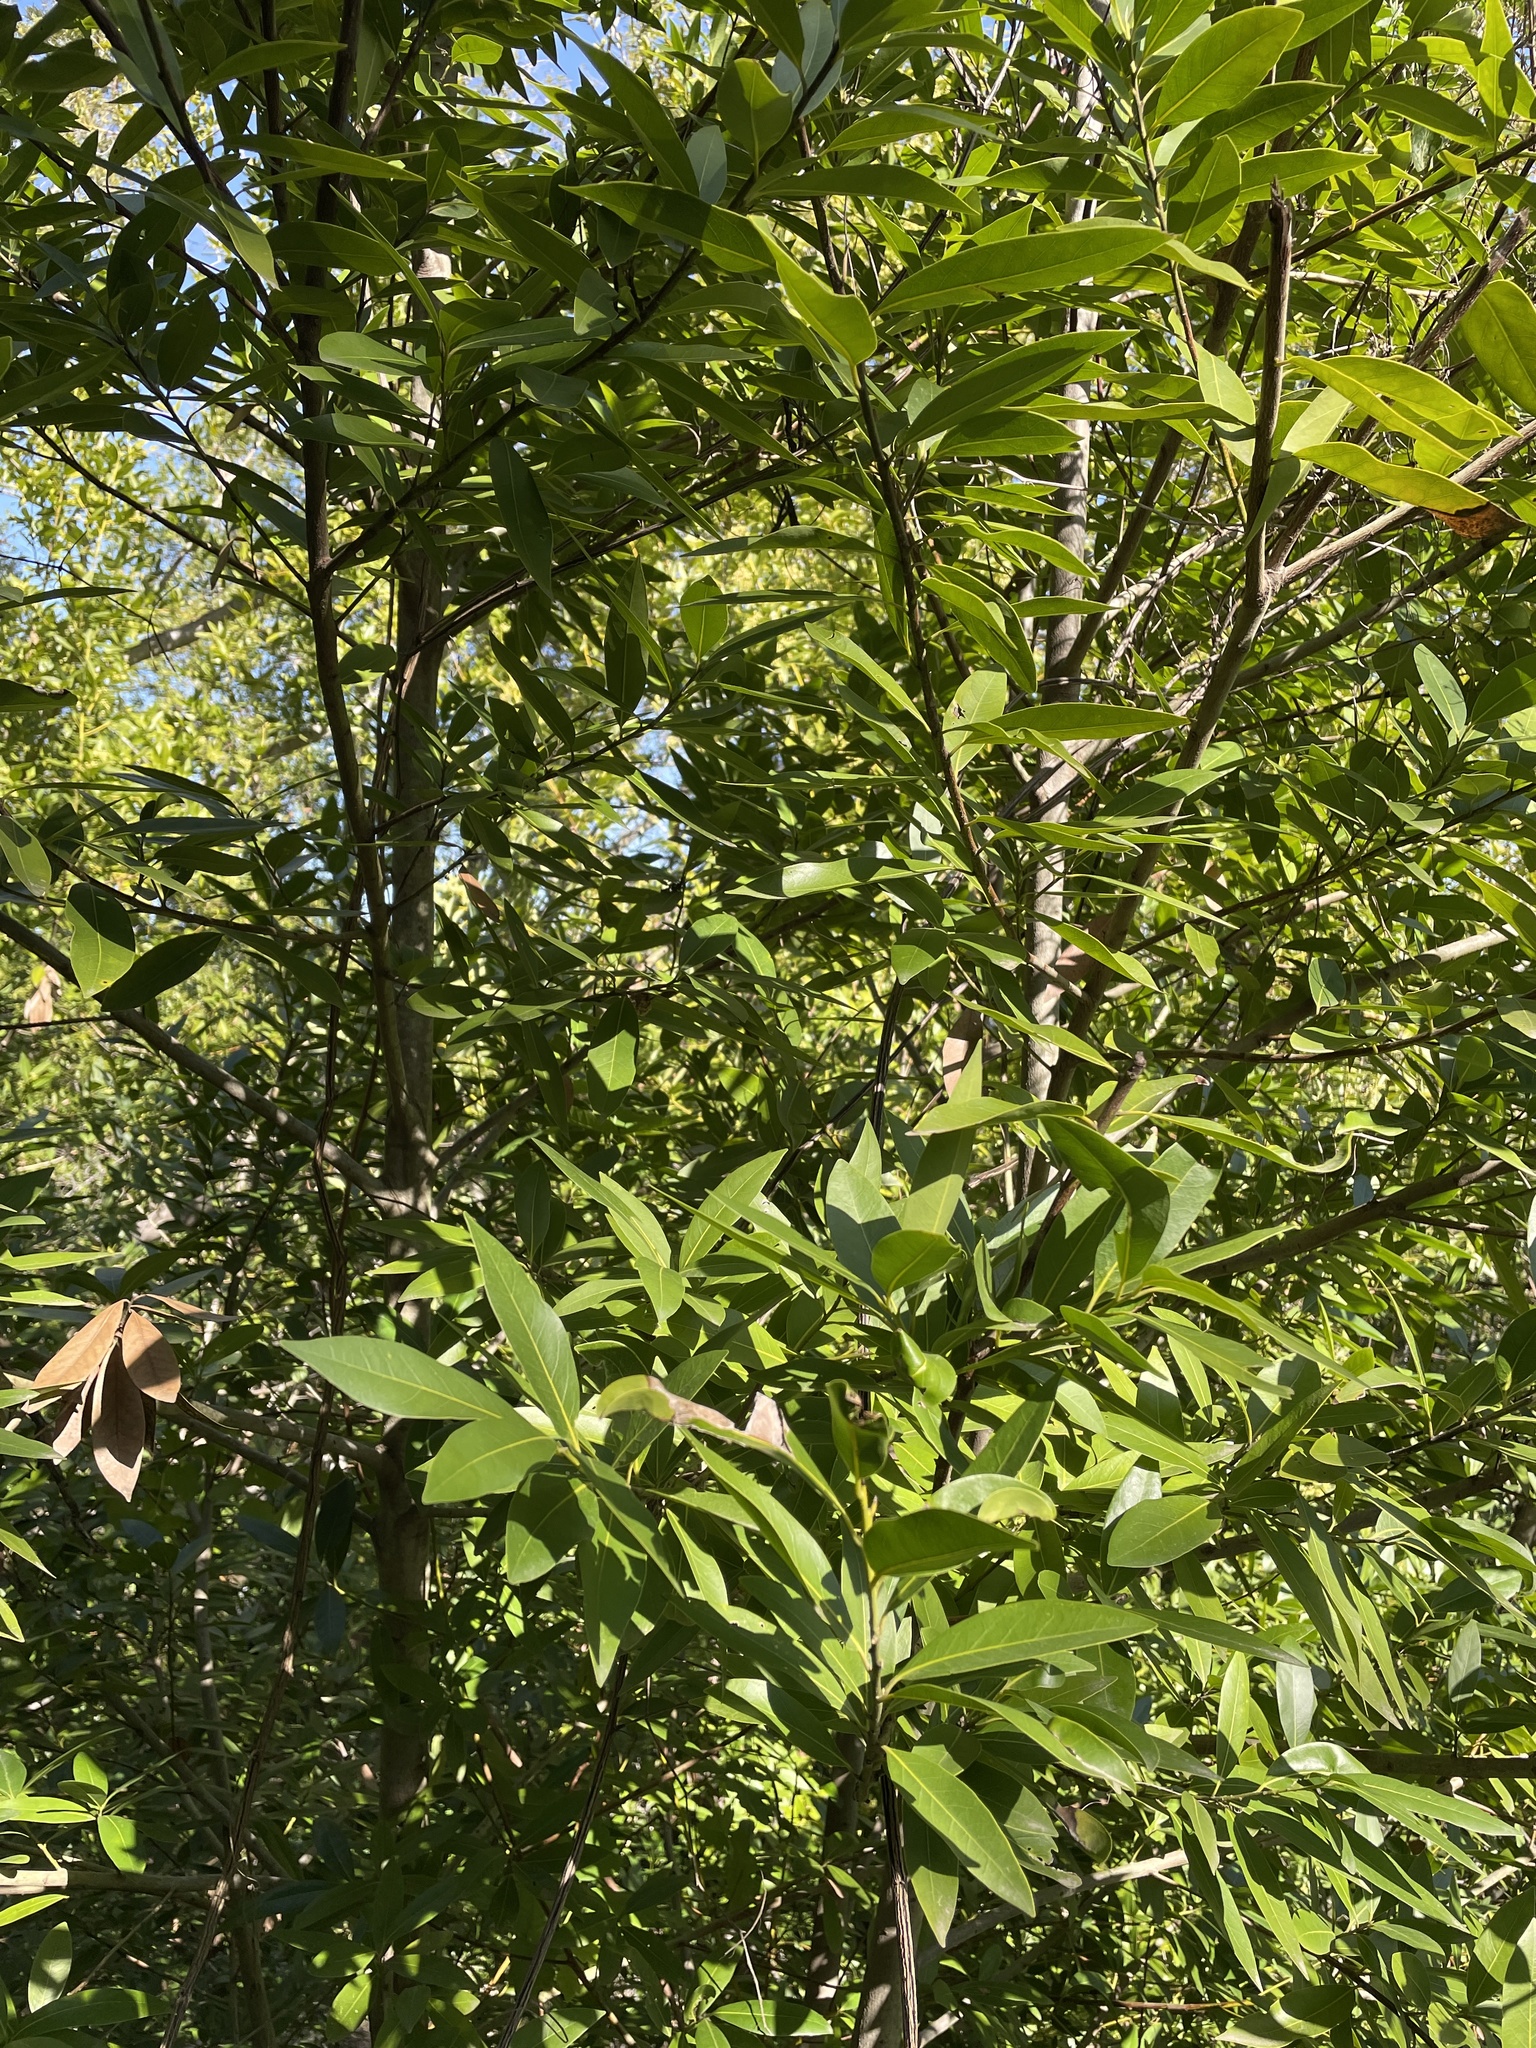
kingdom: Plantae
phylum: Tracheophyta
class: Magnoliopsida
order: Laurales
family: Lauraceae
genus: Umbellularia
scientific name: Umbellularia californica
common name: California bay
